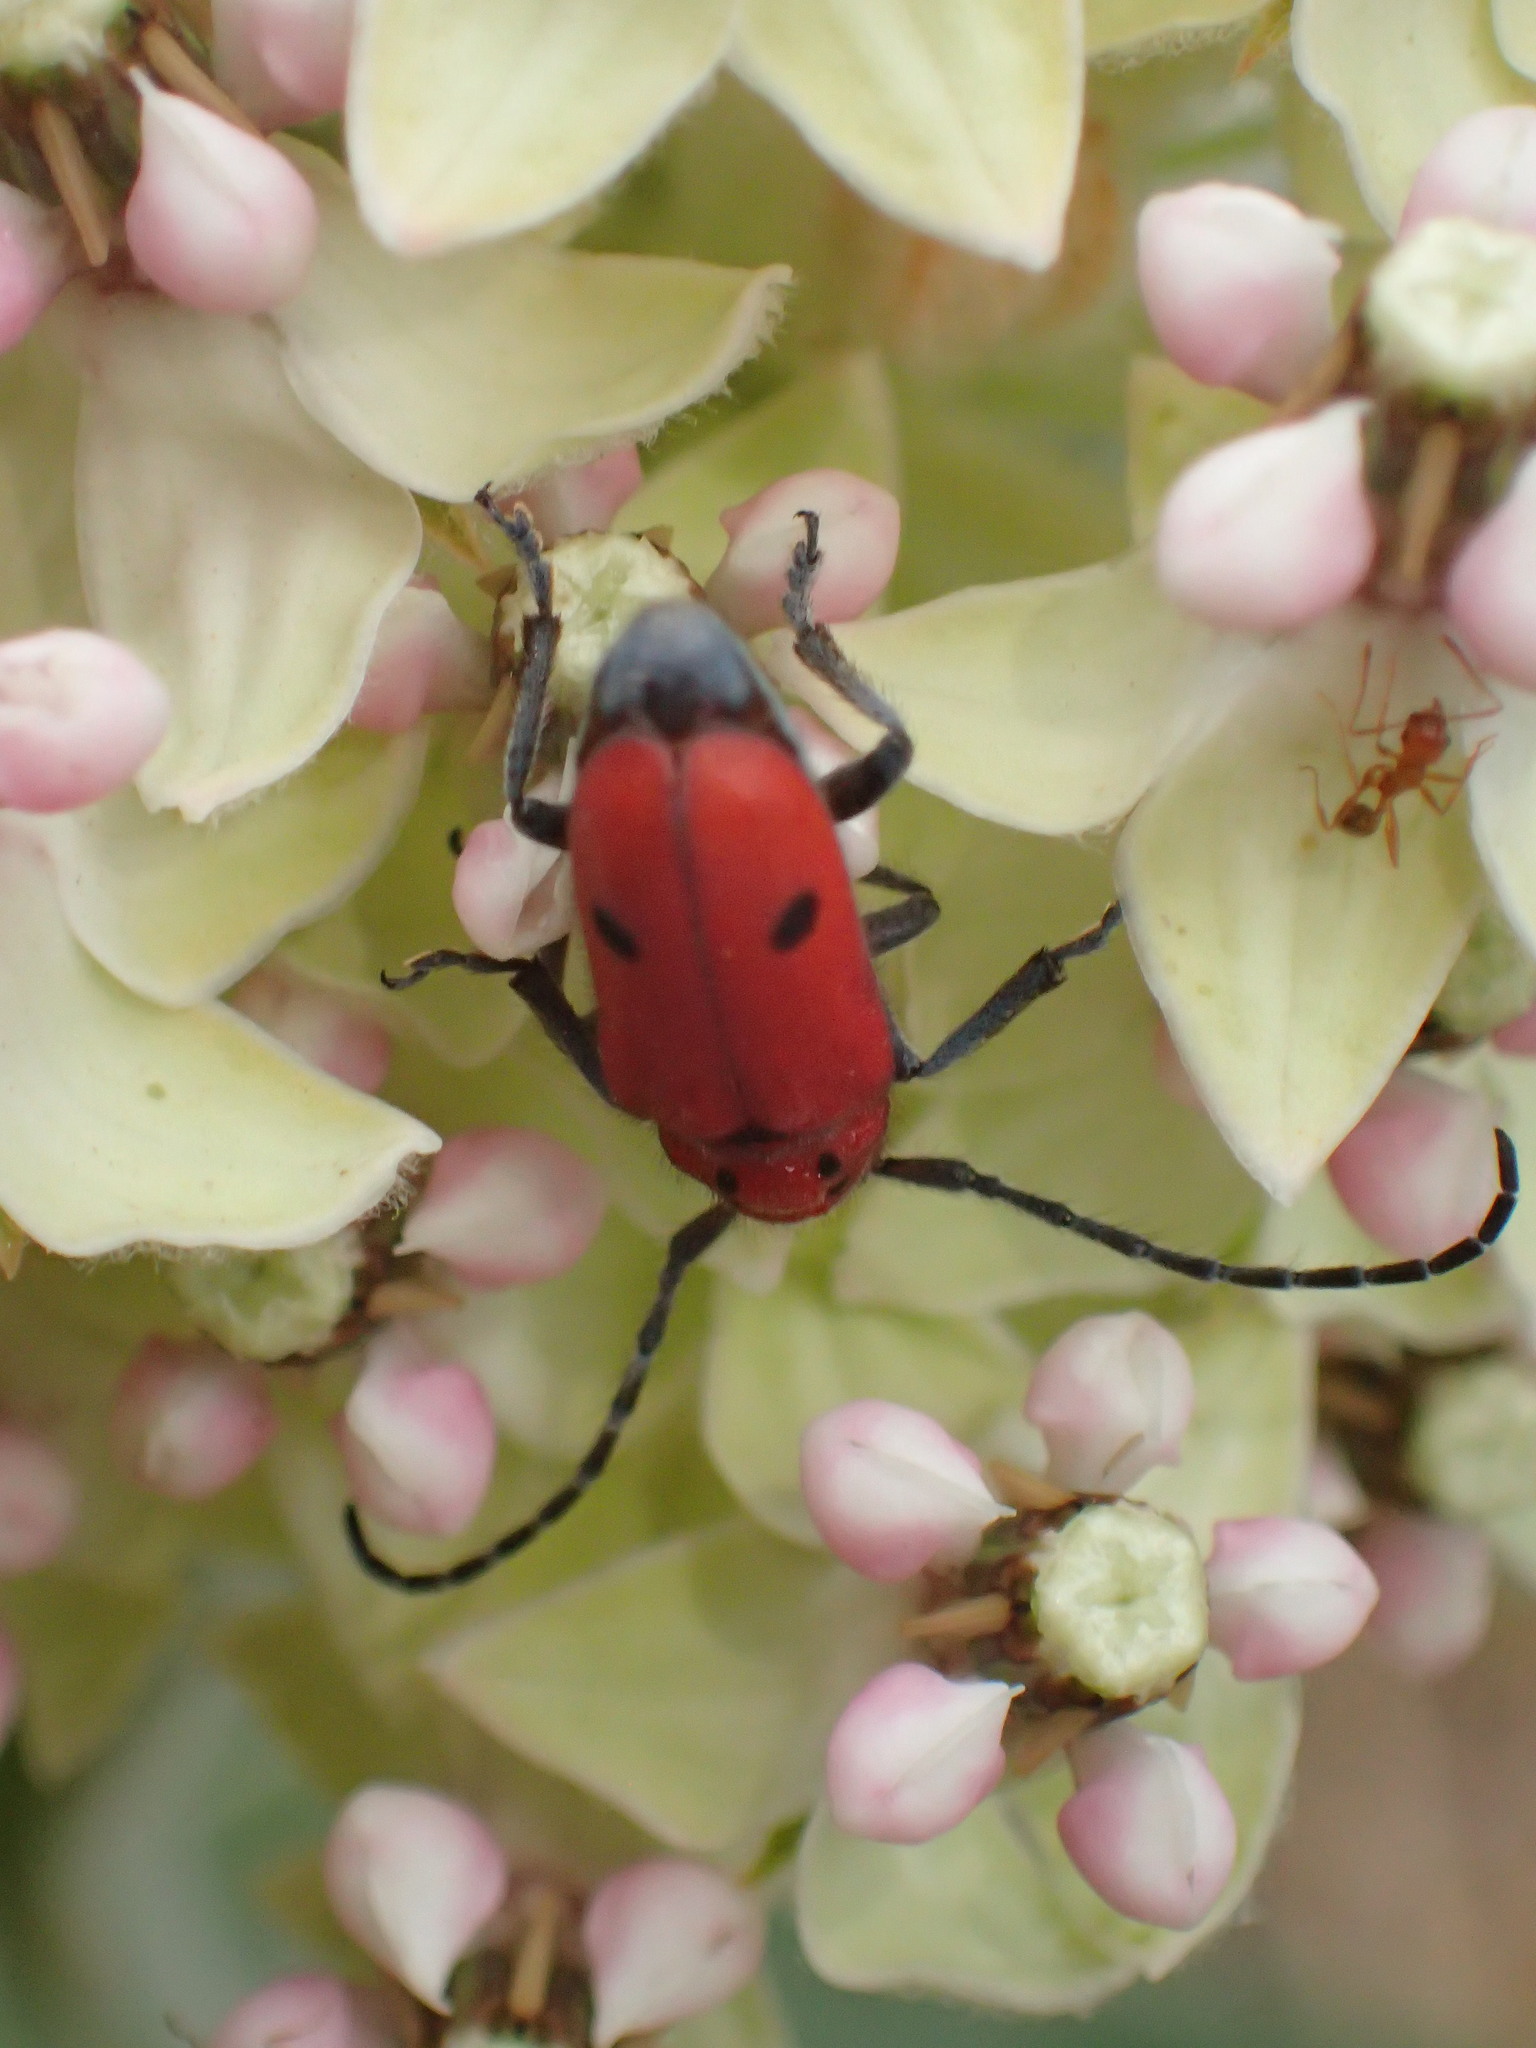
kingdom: Animalia
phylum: Arthropoda
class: Insecta
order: Coleoptera
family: Cerambycidae
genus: Tetraopes
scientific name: Tetraopes basalis
